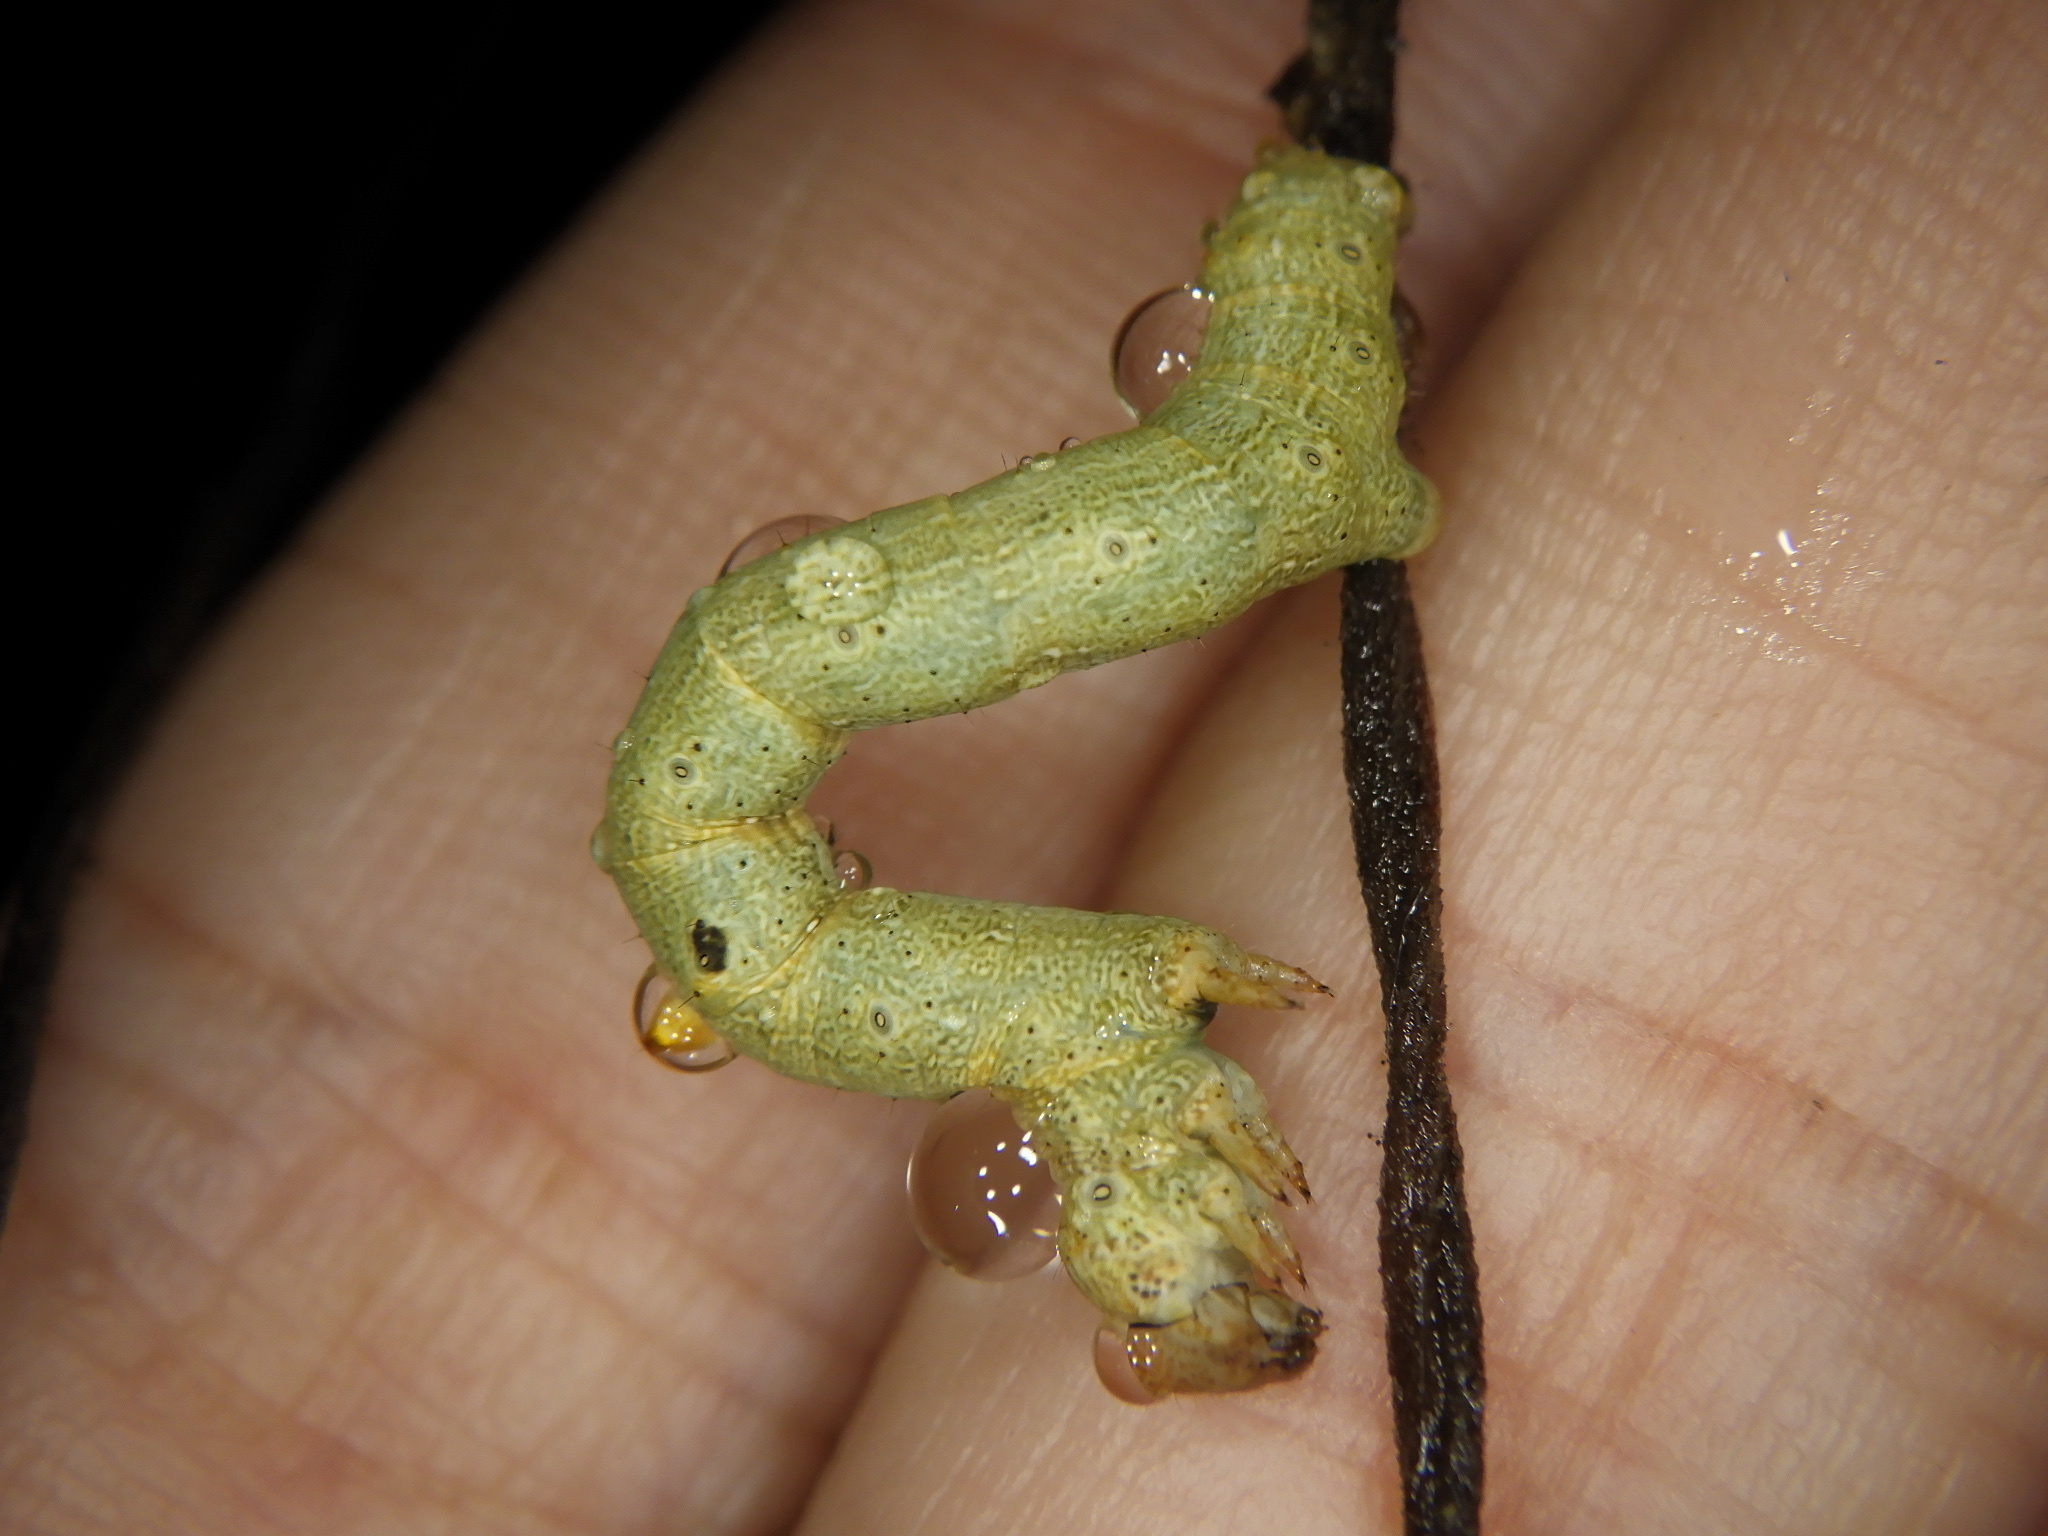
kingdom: Animalia
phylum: Arthropoda
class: Insecta
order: Lepidoptera
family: Geometridae
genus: Ascotis
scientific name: Ascotis selenaria
